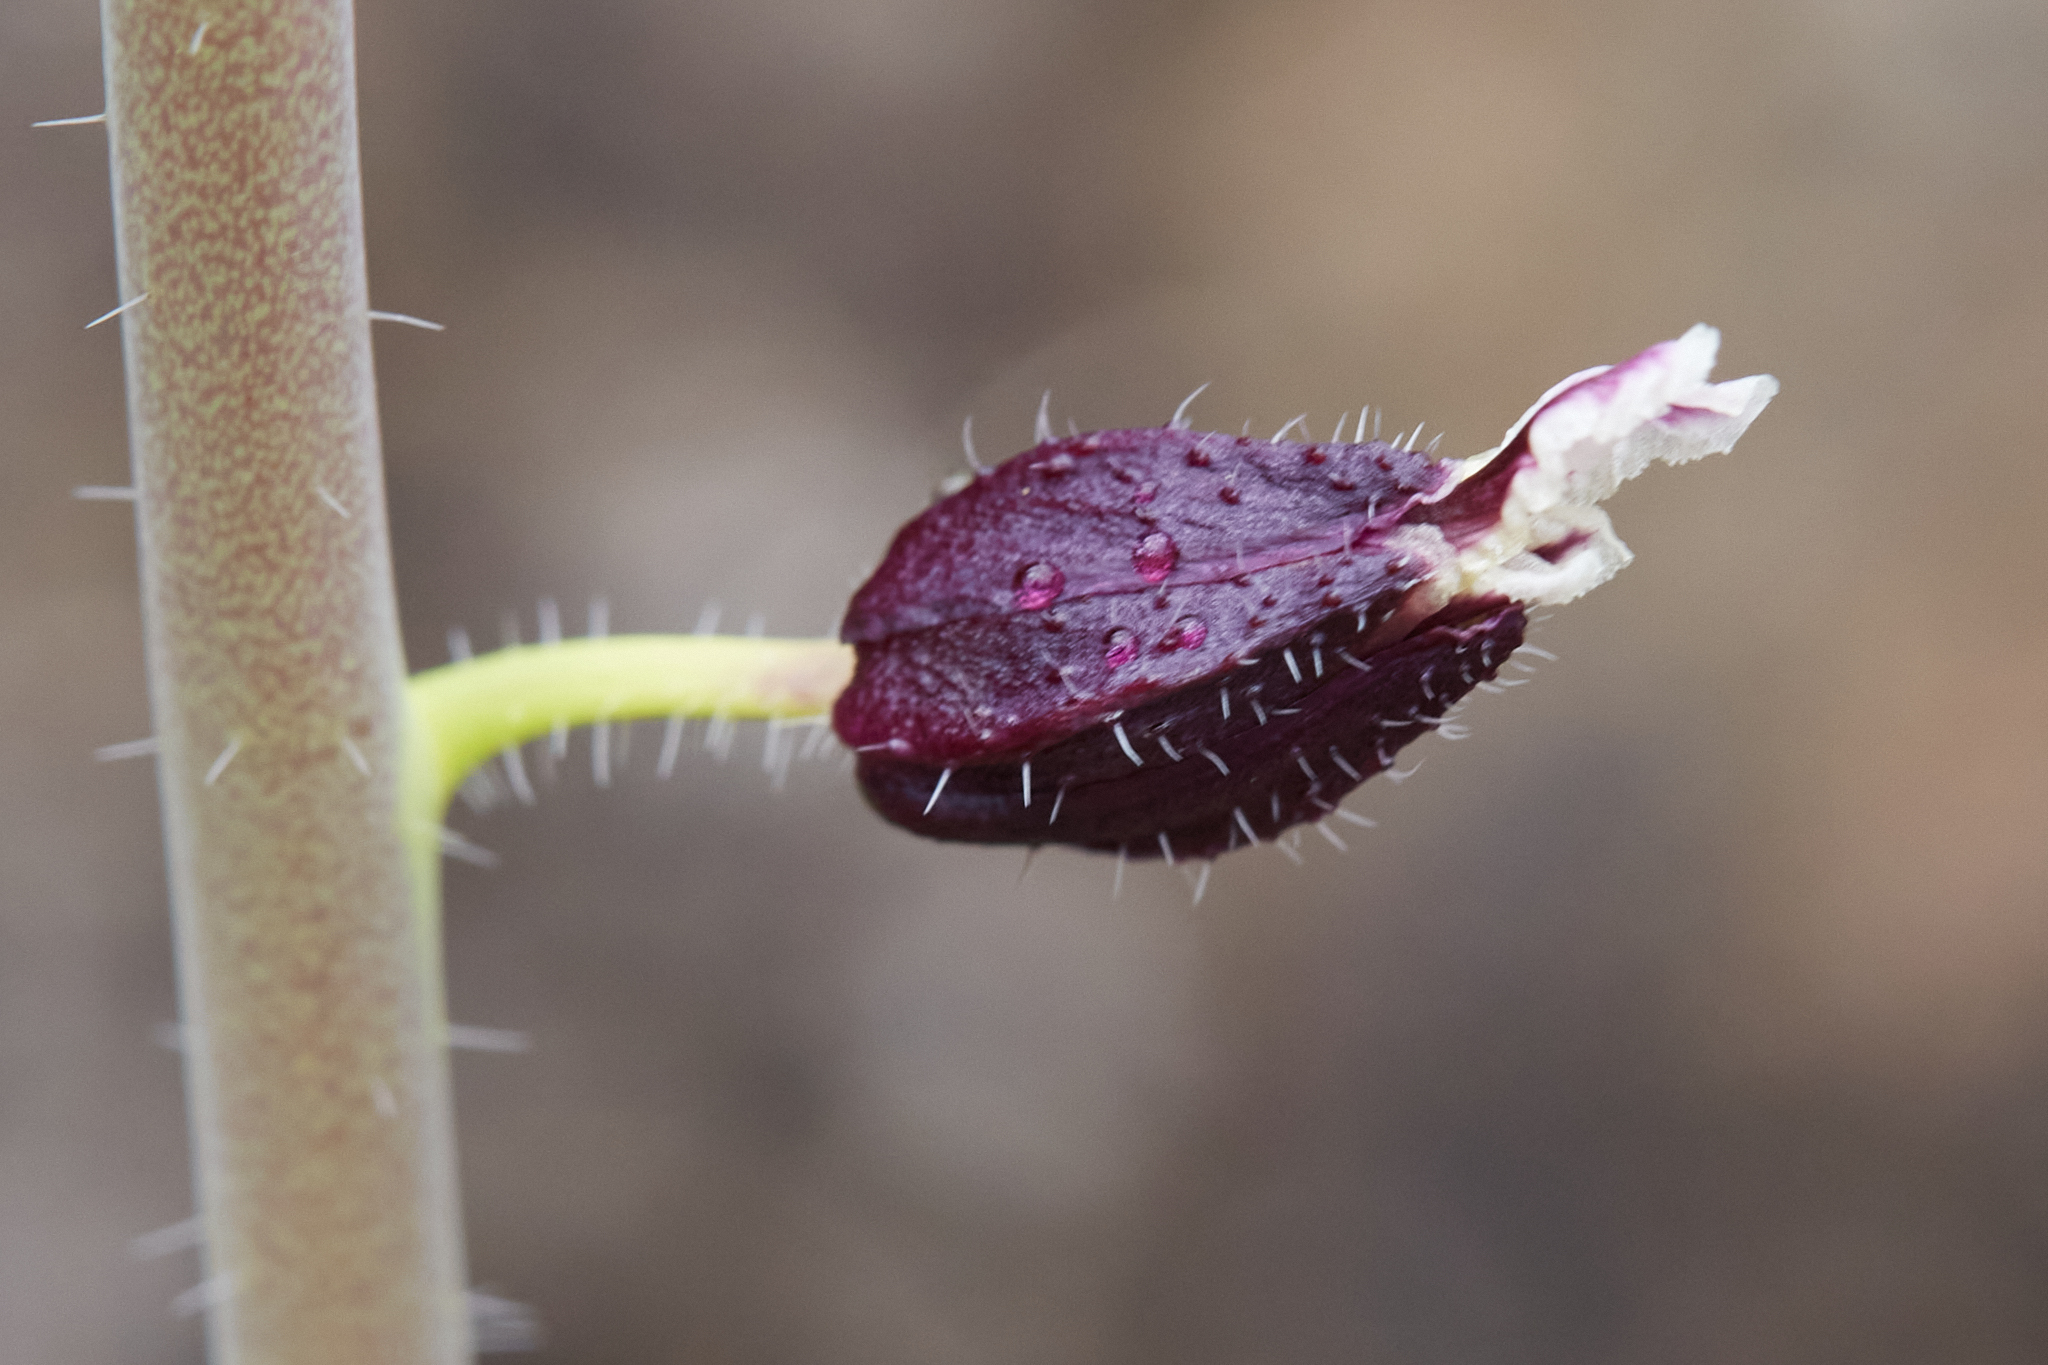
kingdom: Plantae
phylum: Tracheophyta
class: Magnoliopsida
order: Brassicales
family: Brassicaceae
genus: Streptanthus
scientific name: Streptanthus glandulosus
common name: Jewel-flower
